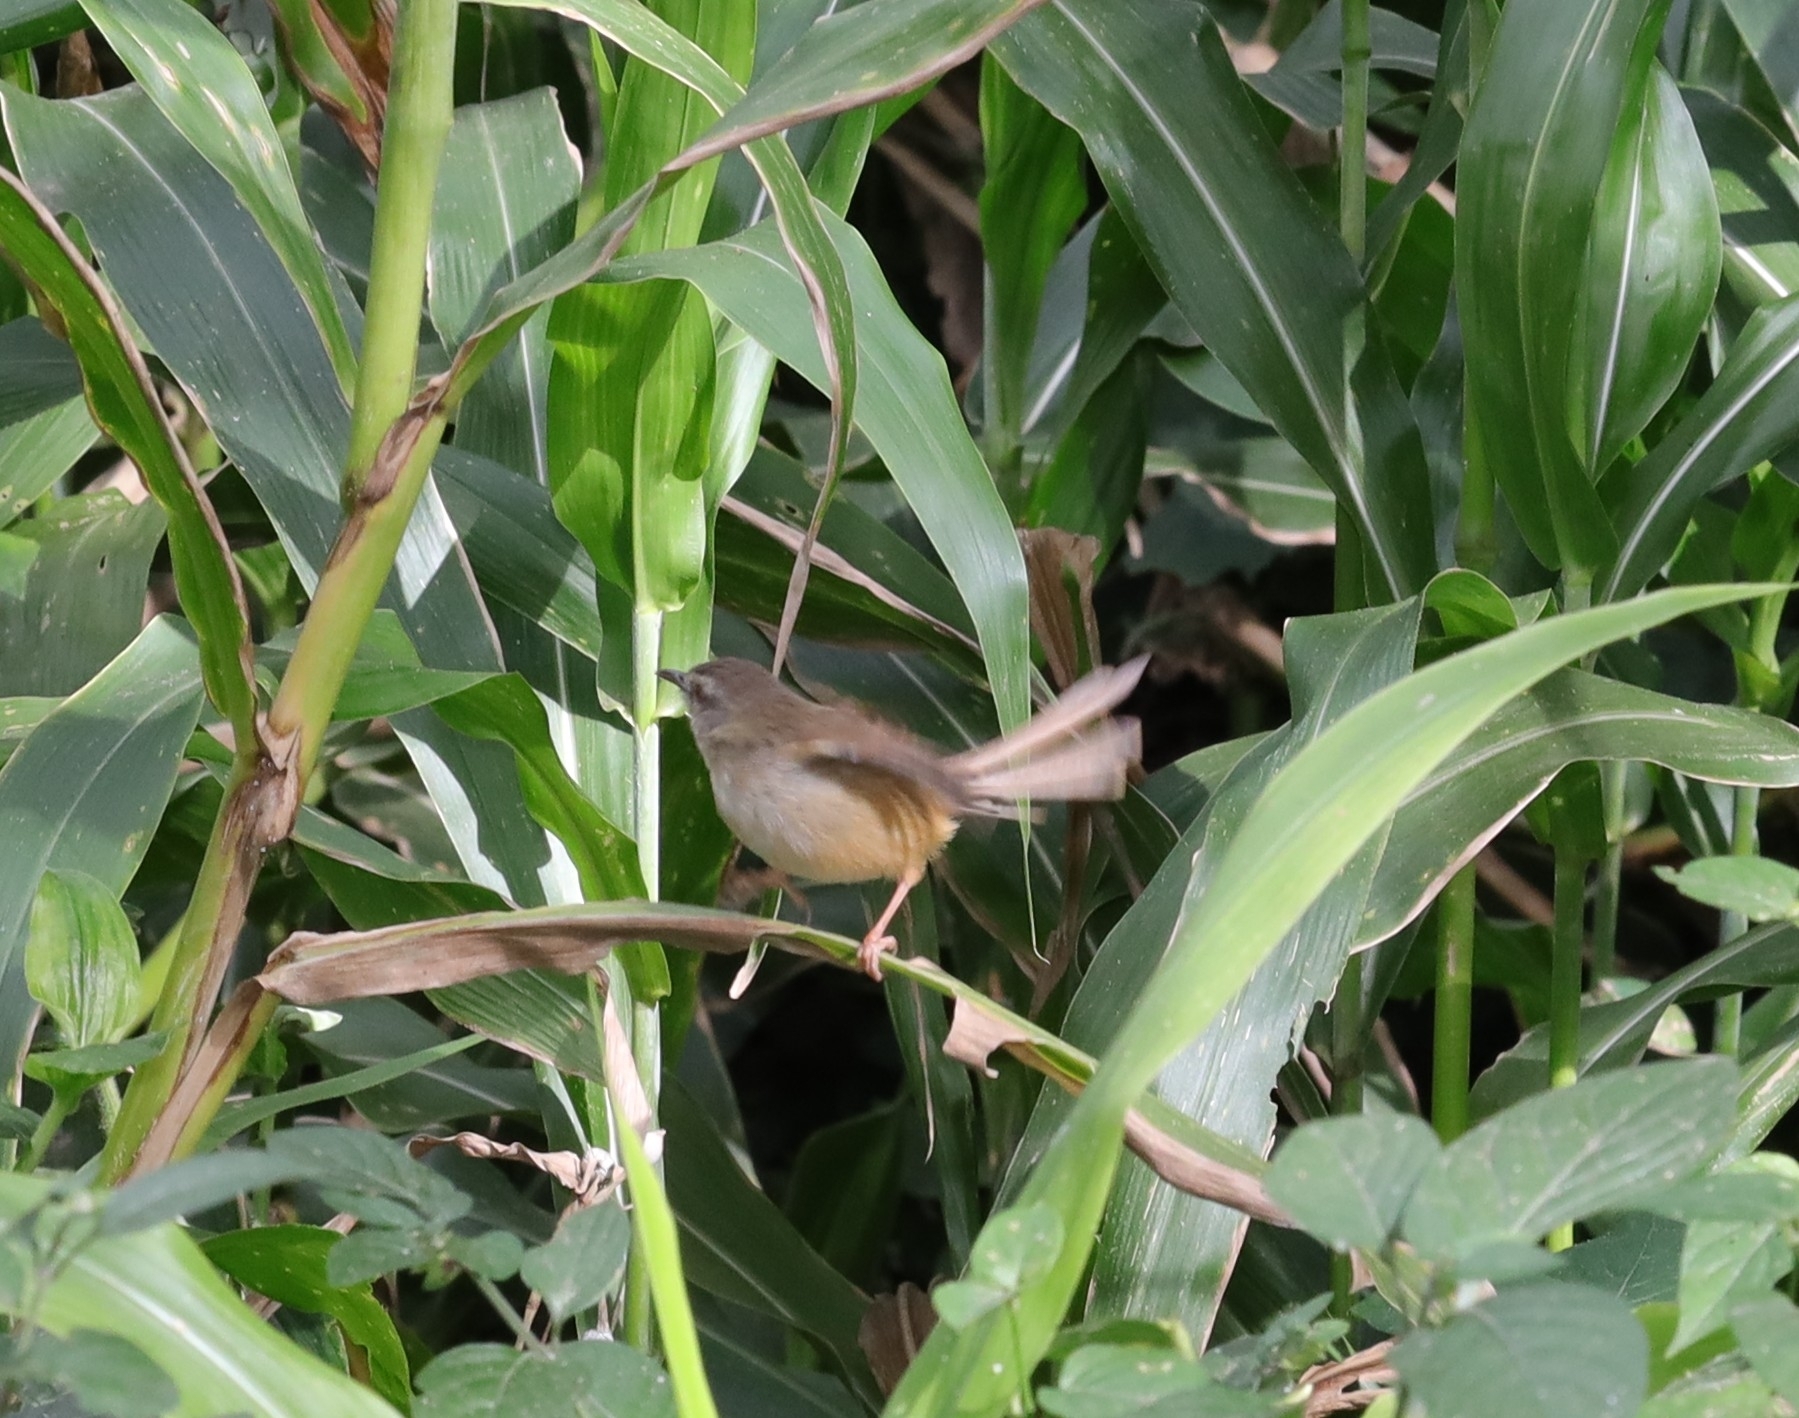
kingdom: Animalia
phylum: Chordata
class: Aves
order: Passeriformes
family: Cisticolidae
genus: Prinia
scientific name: Prinia subflava
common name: Tawny-flanked prinia
